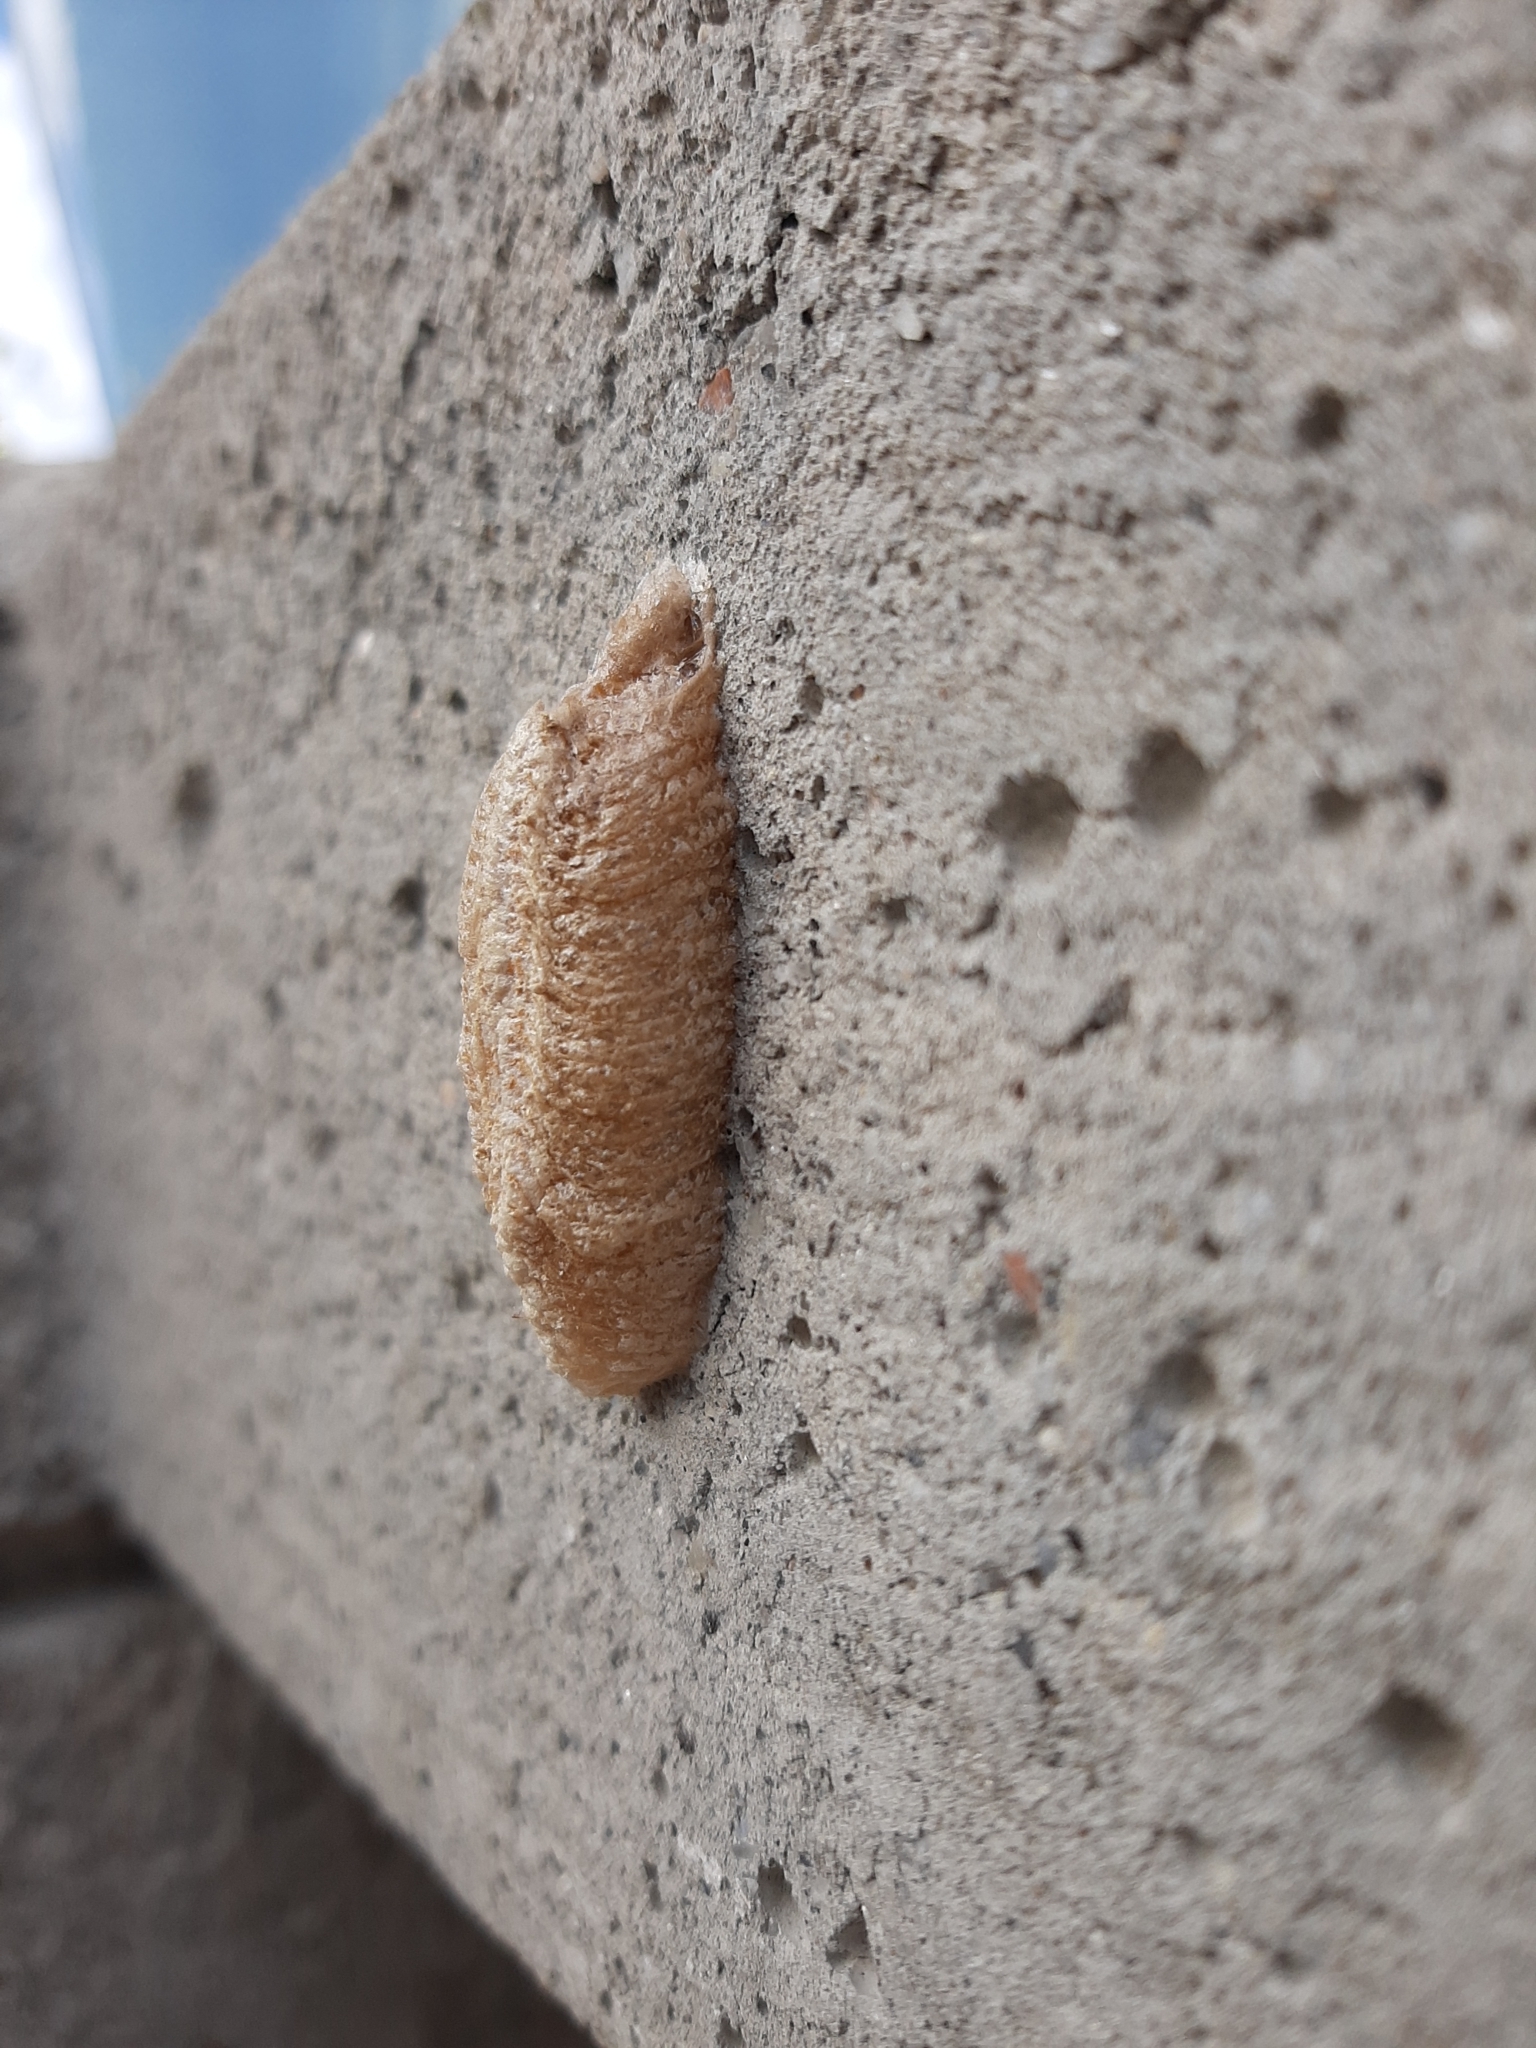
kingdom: Animalia
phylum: Arthropoda
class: Insecta
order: Mantodea
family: Mantidae
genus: Mantis
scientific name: Mantis religiosa
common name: Praying mantis
